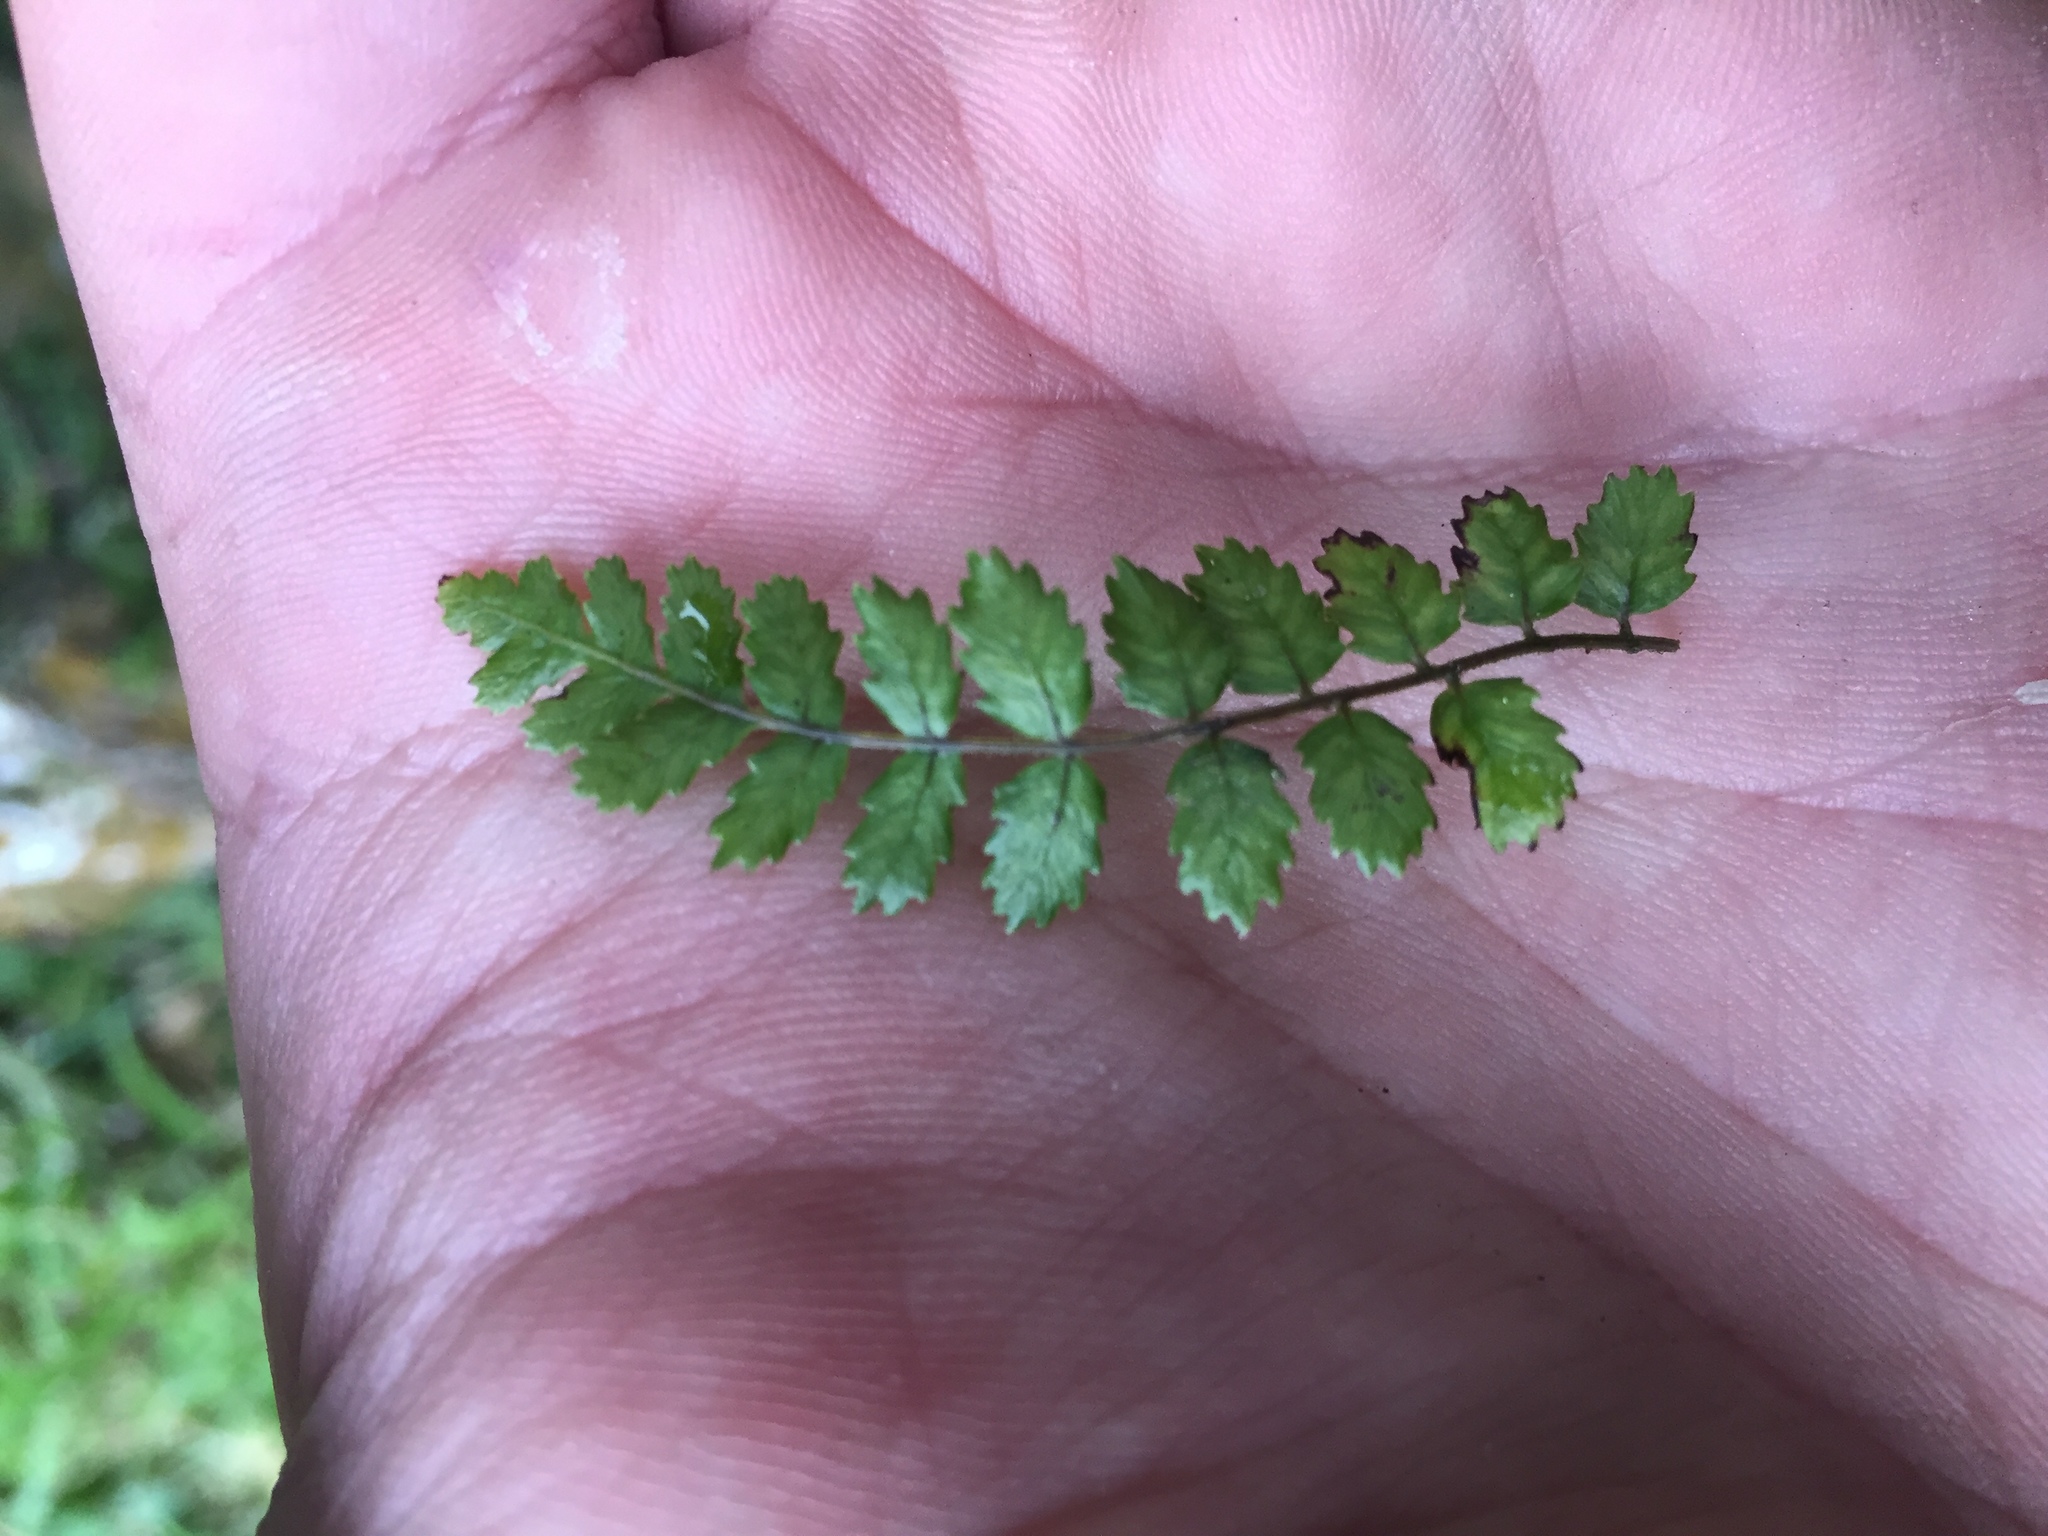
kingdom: Plantae
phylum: Tracheophyta
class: Polypodiopsida
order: Polypodiales
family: Blechnaceae
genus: Icarus
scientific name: Icarus filiformis
